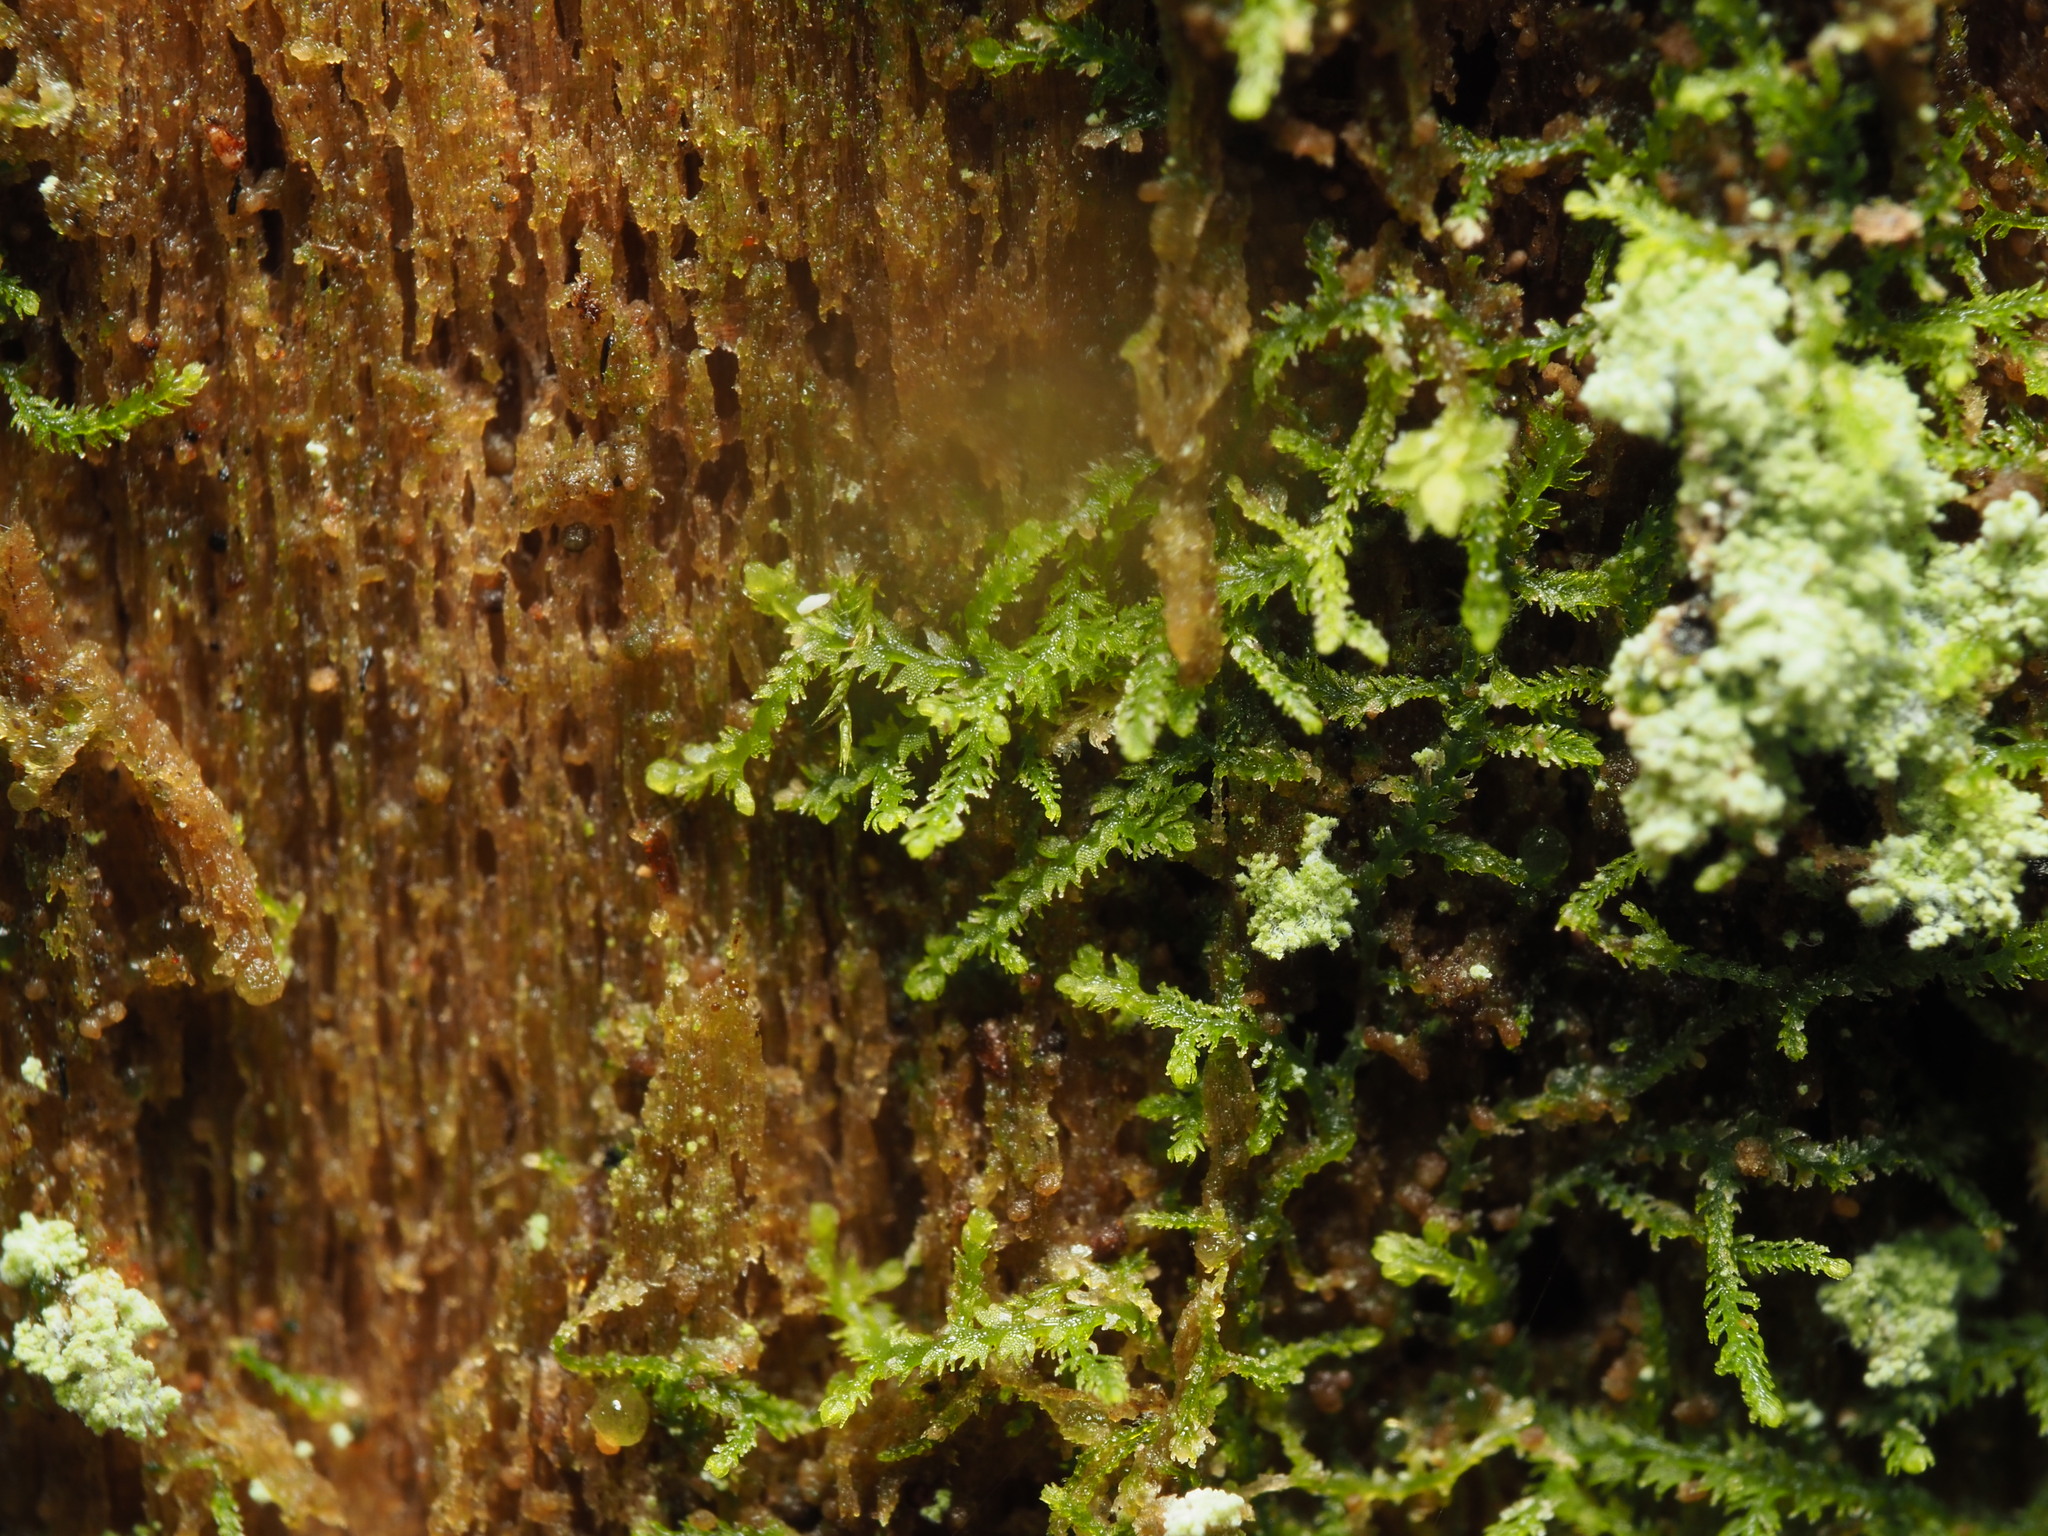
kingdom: Plantae
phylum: Marchantiophyta
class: Jungermanniopsida
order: Jungermanniales
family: Lepidoziaceae
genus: Lepidozia
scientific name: Lepidozia reptans
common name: Creeping fingerwort
